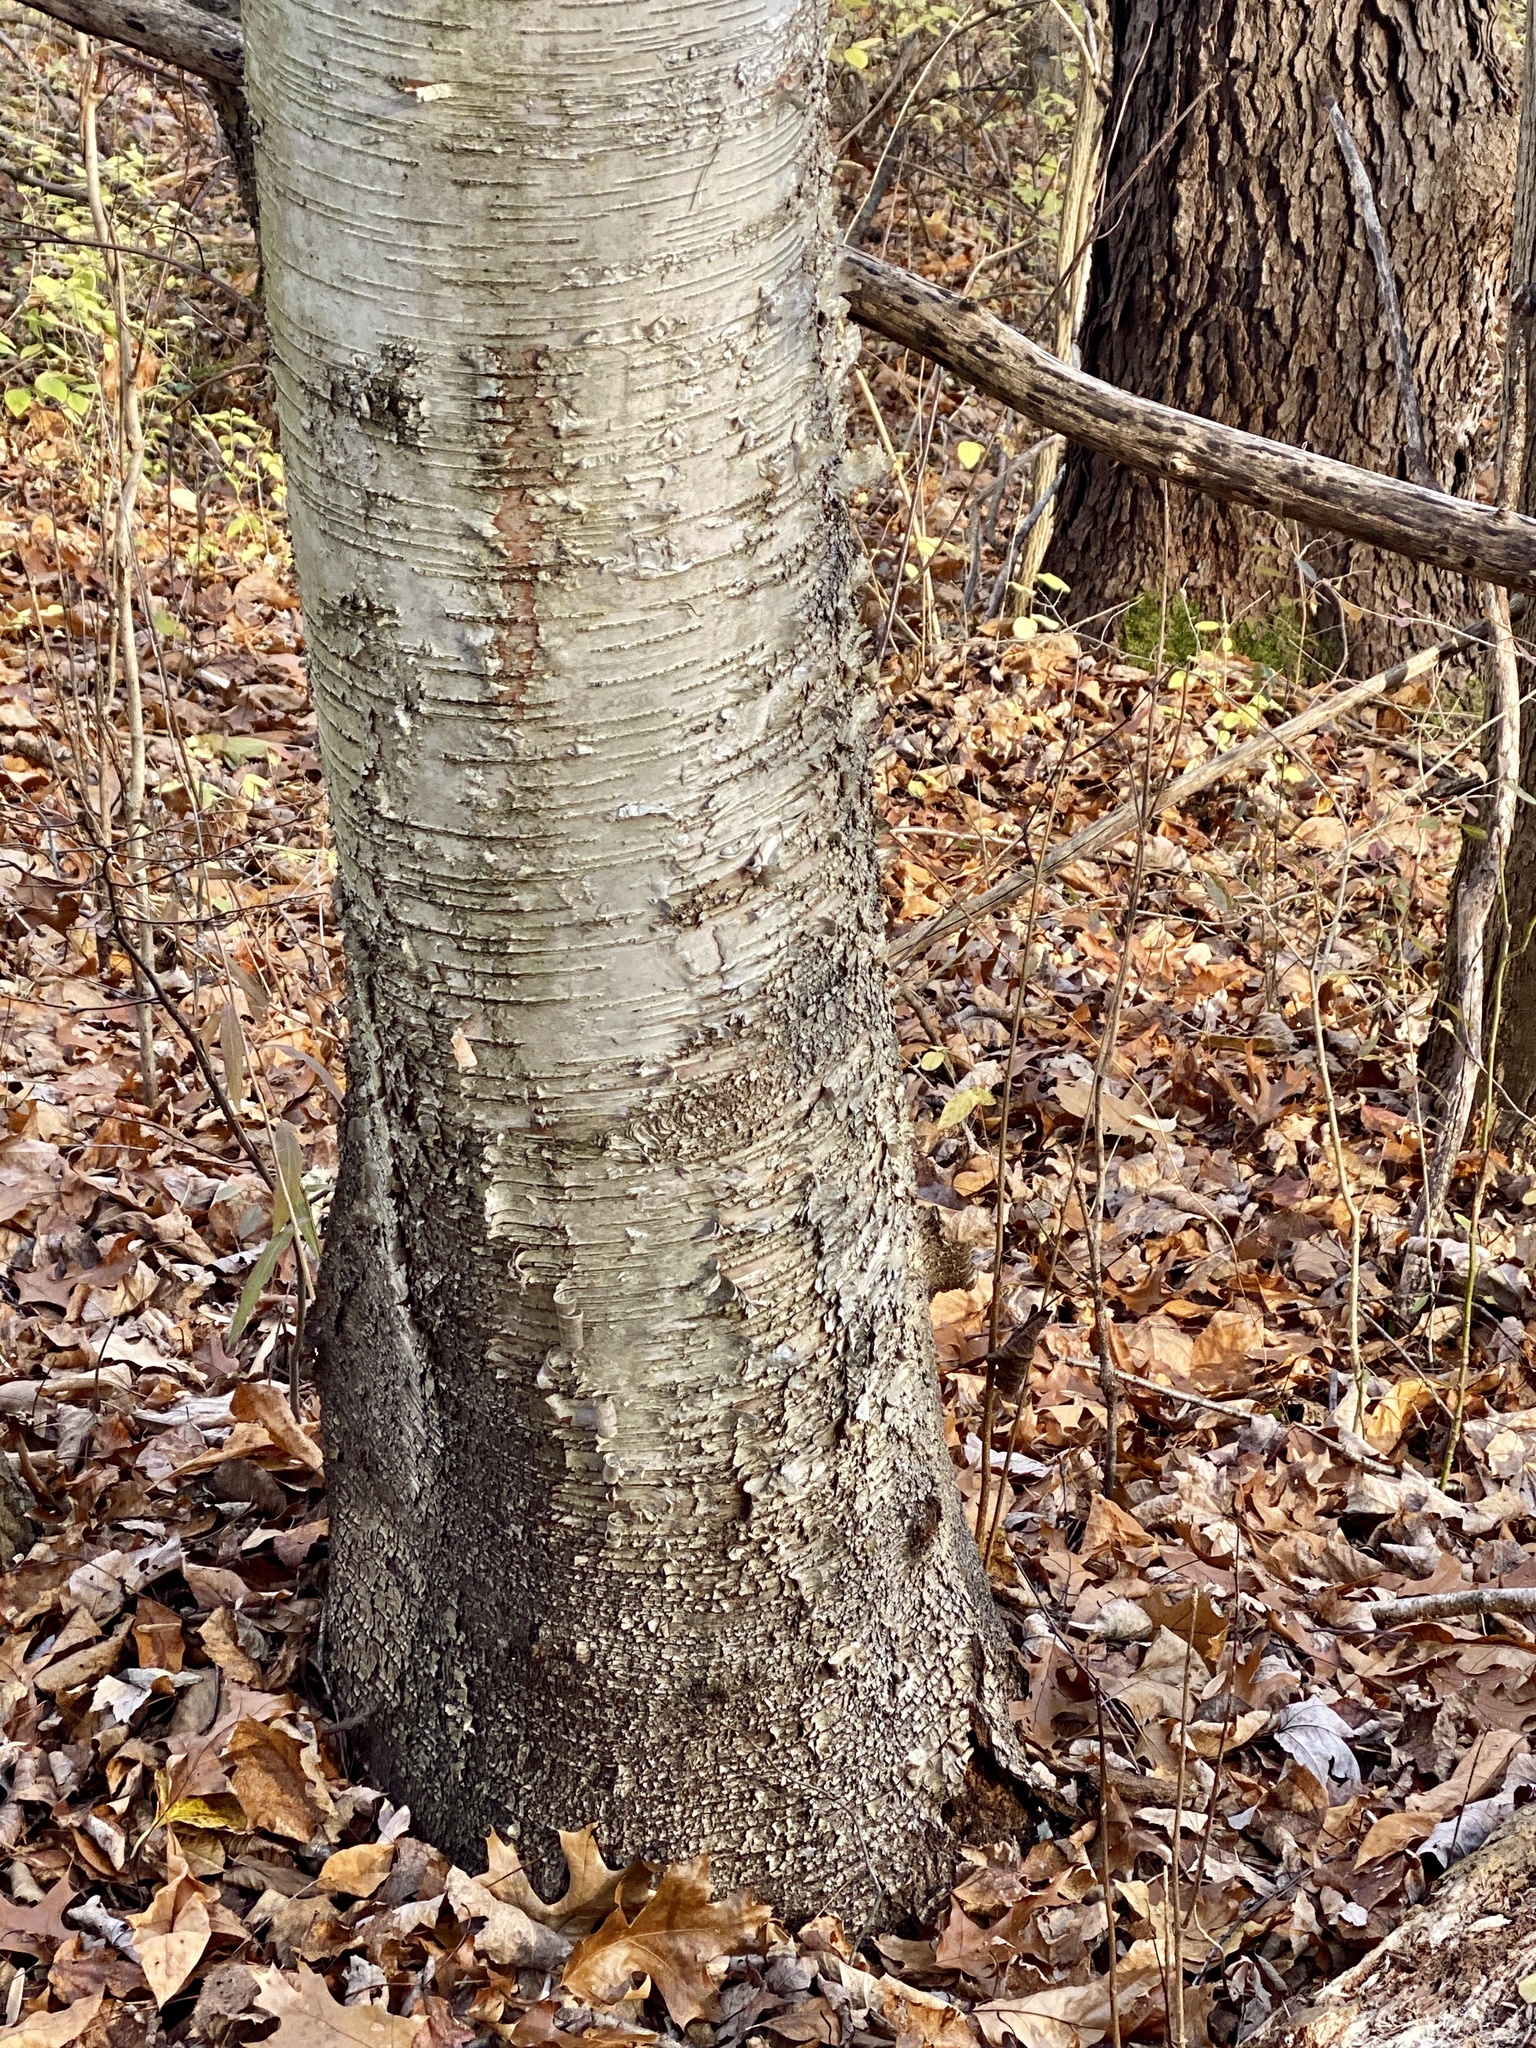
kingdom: Plantae
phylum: Tracheophyta
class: Magnoliopsida
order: Fagales
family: Betulaceae
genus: Betula
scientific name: Betula papyrifera
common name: Paper birch
